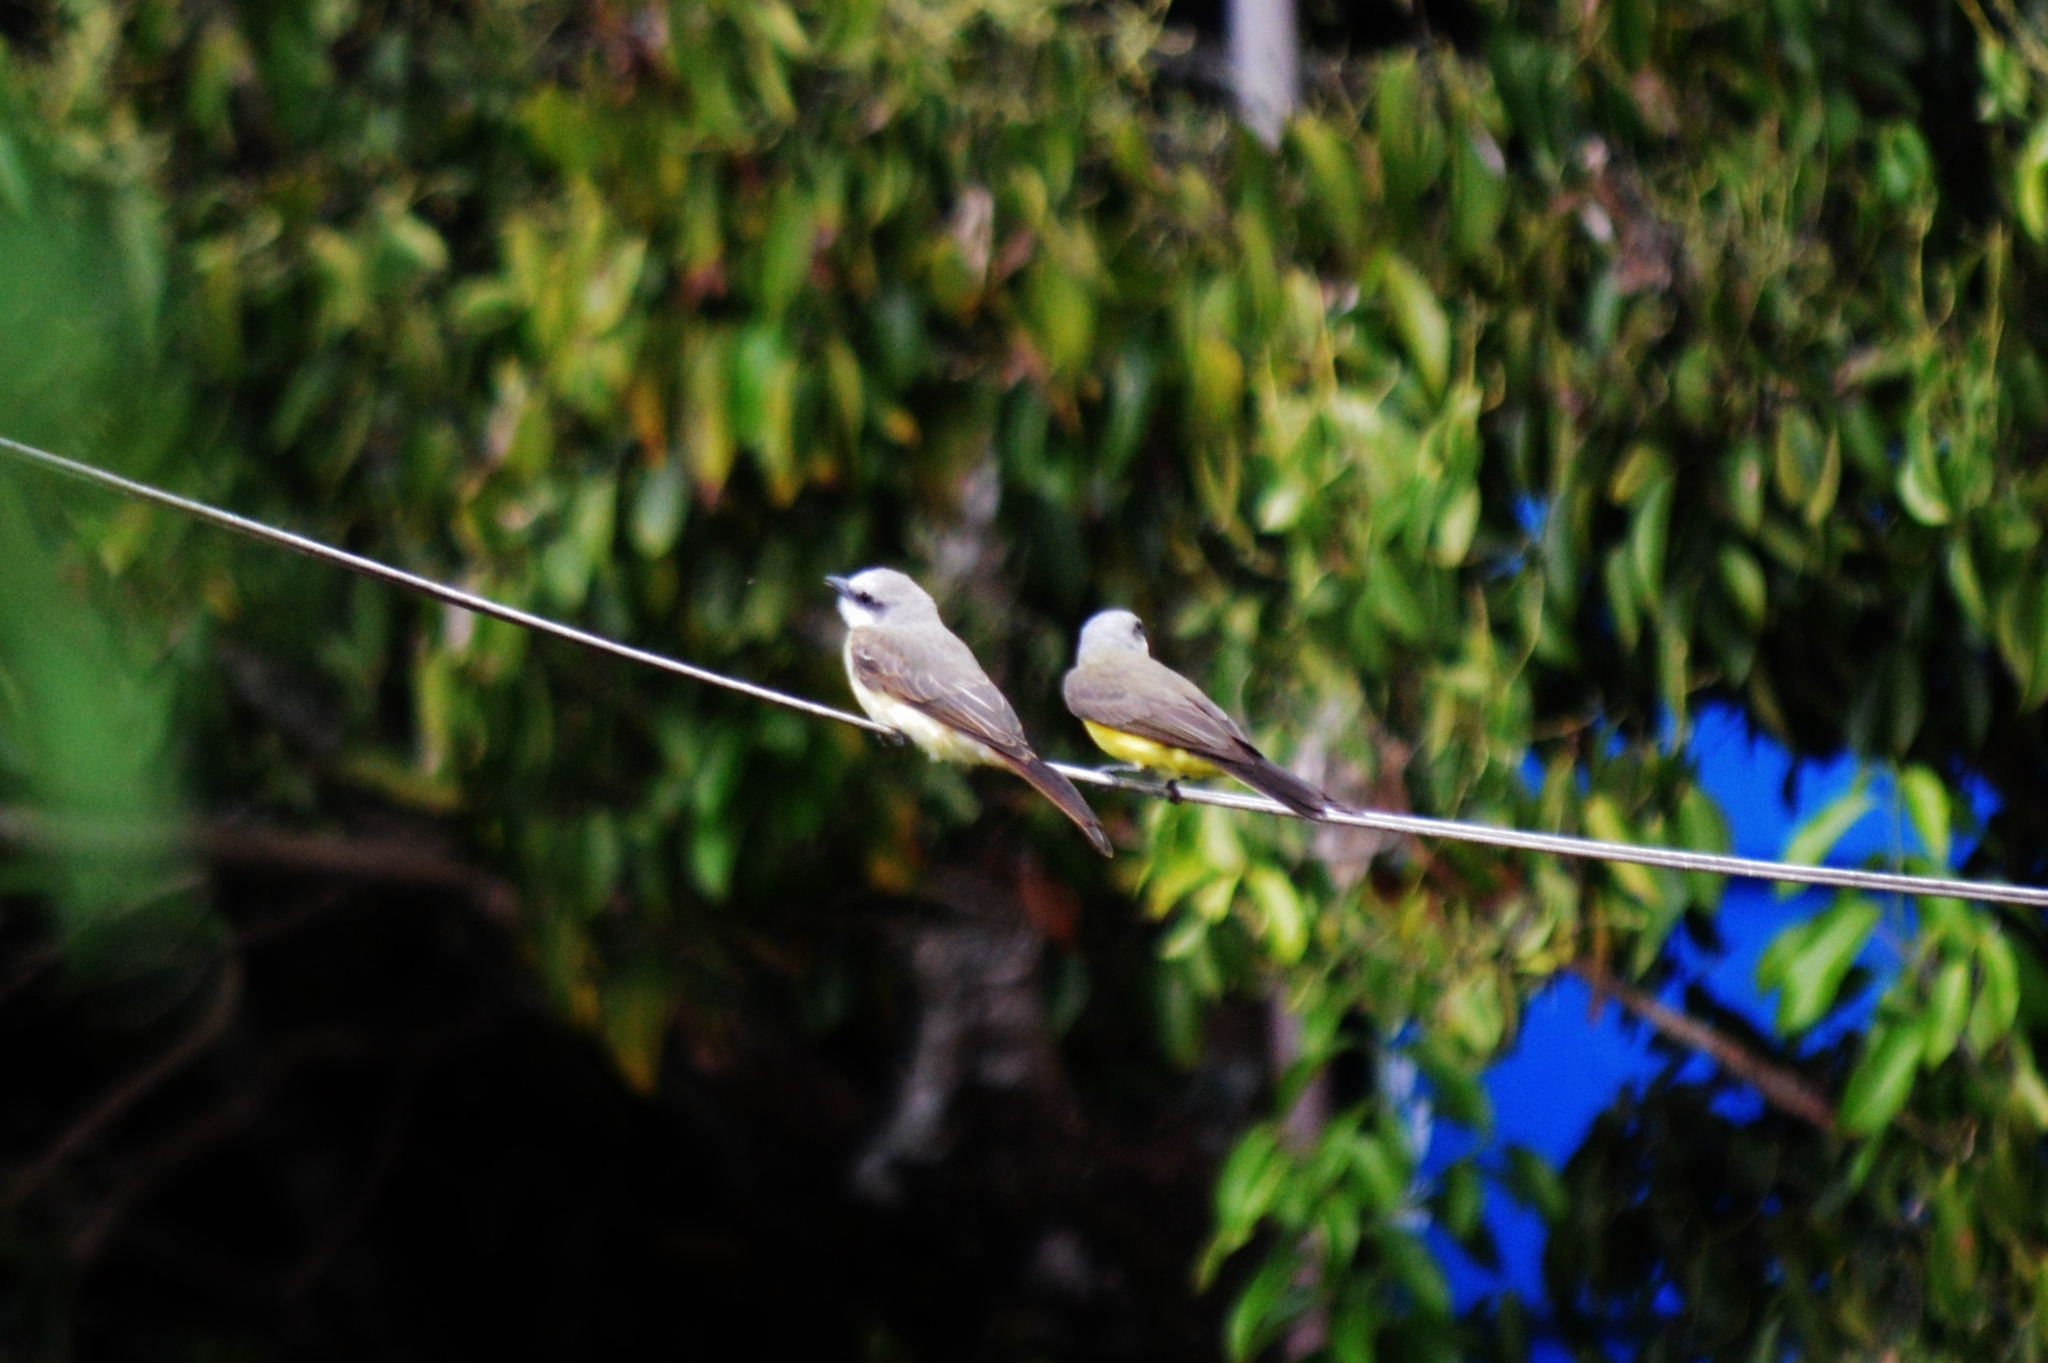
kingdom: Animalia
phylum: Chordata
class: Aves
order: Passeriformes
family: Tyrannidae
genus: Tyrannus
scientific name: Tyrannus melancholicus
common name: Tropical kingbird
